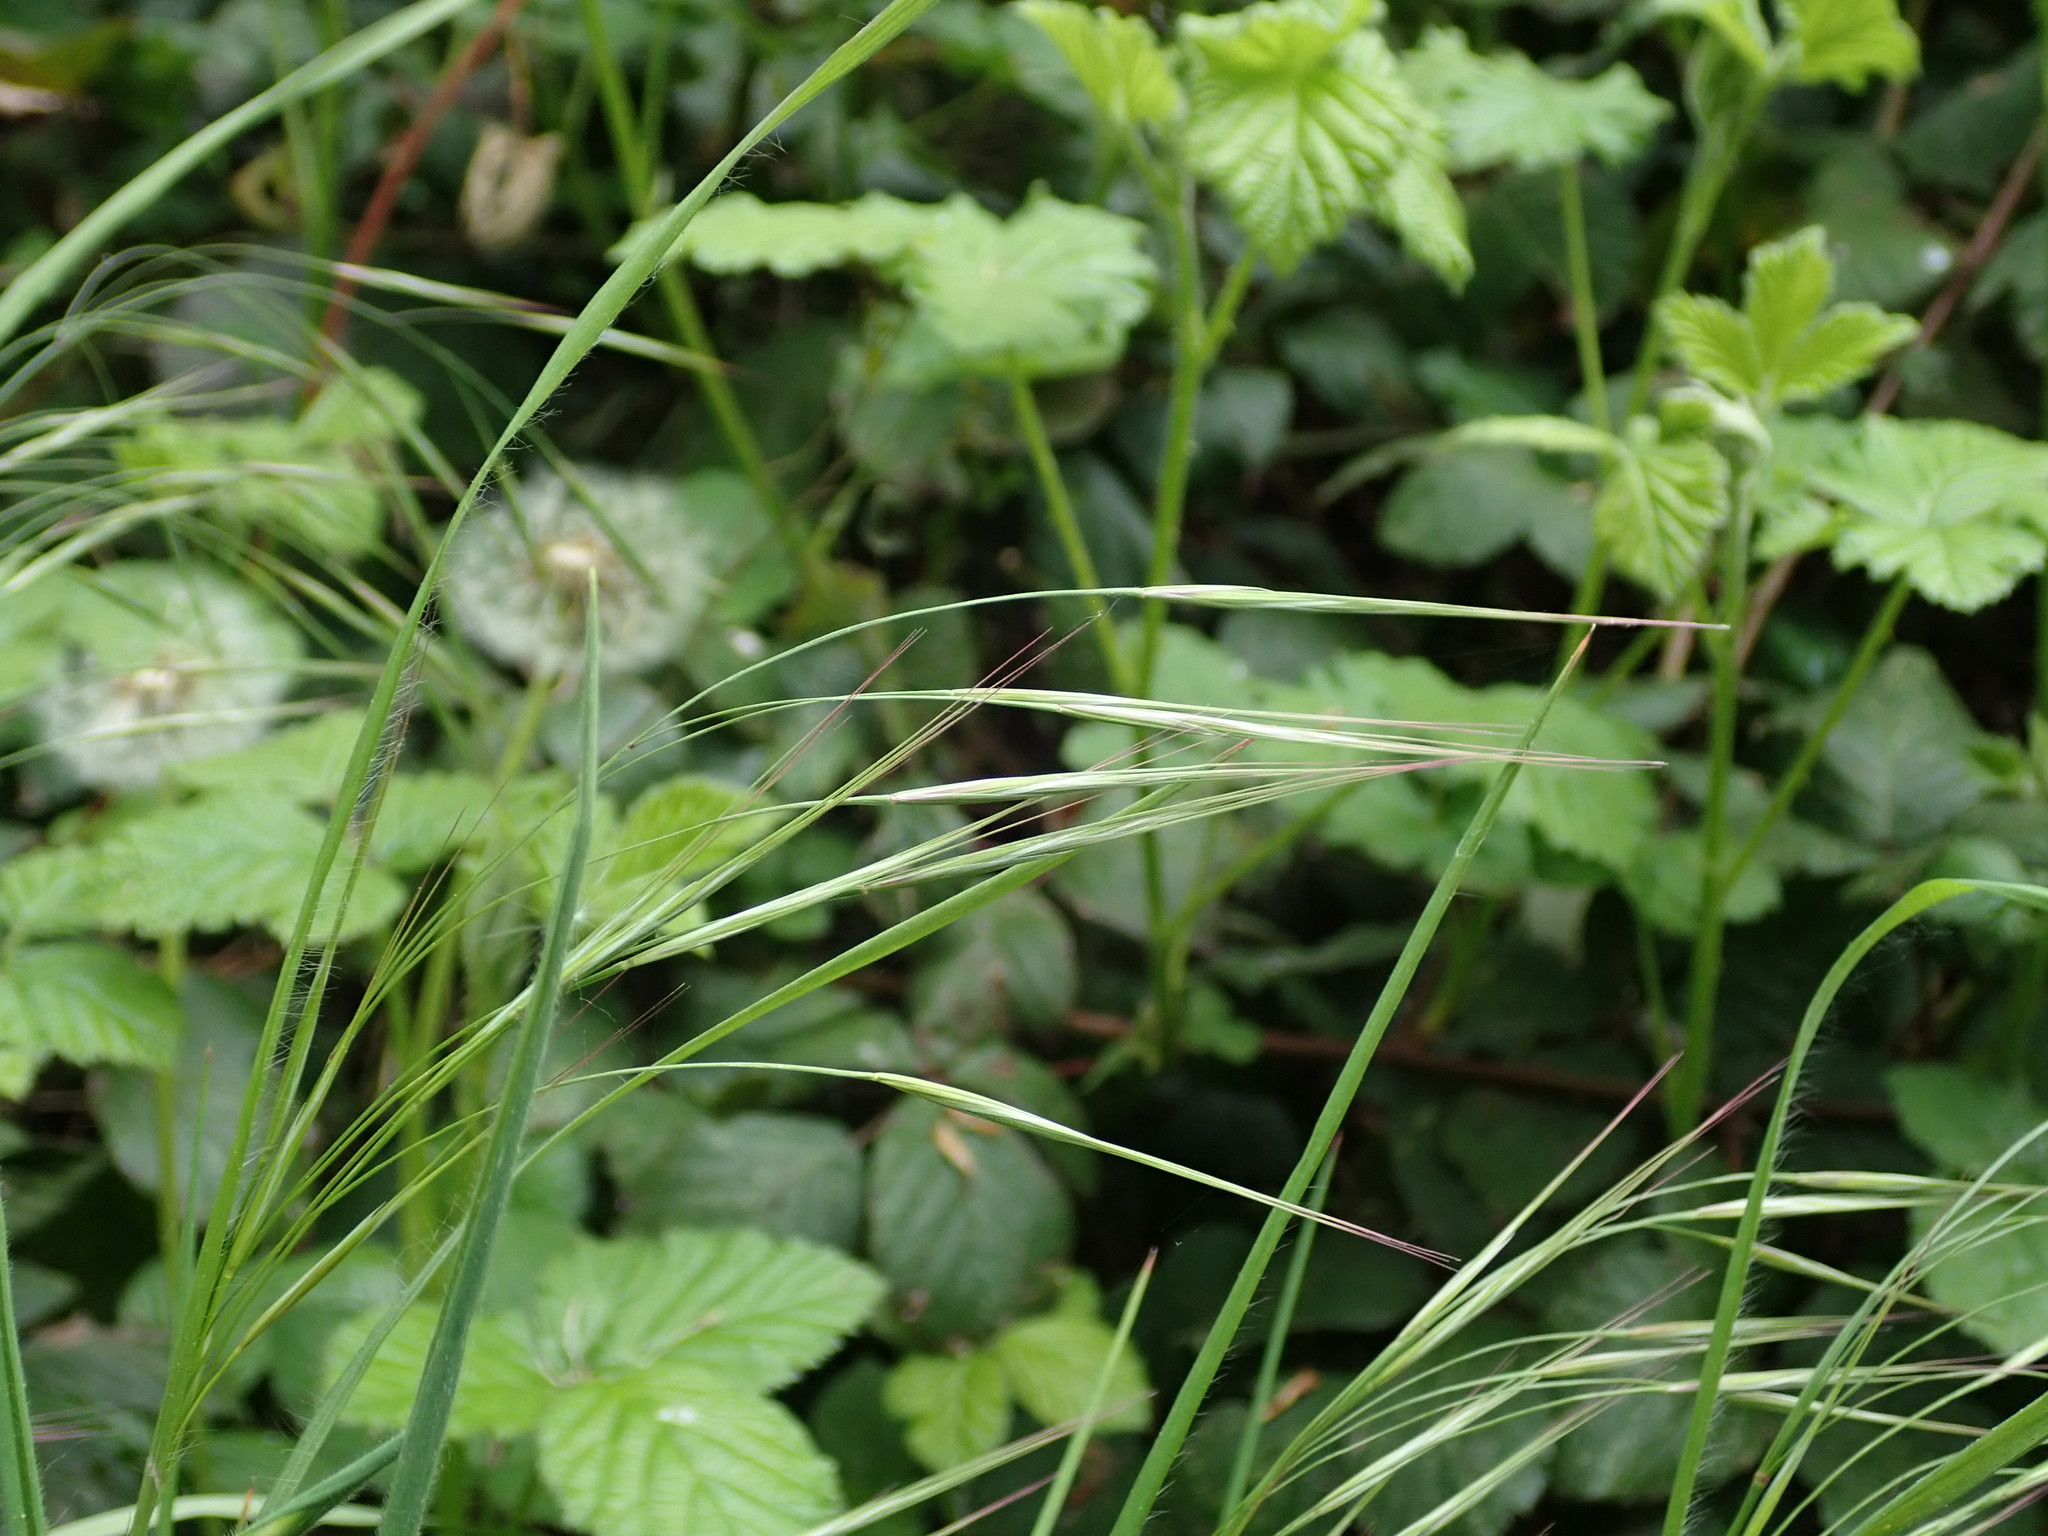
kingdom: Plantae
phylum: Tracheophyta
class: Liliopsida
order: Poales
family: Poaceae
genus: Bromus
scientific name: Bromus sterilis
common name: Poverty brome
